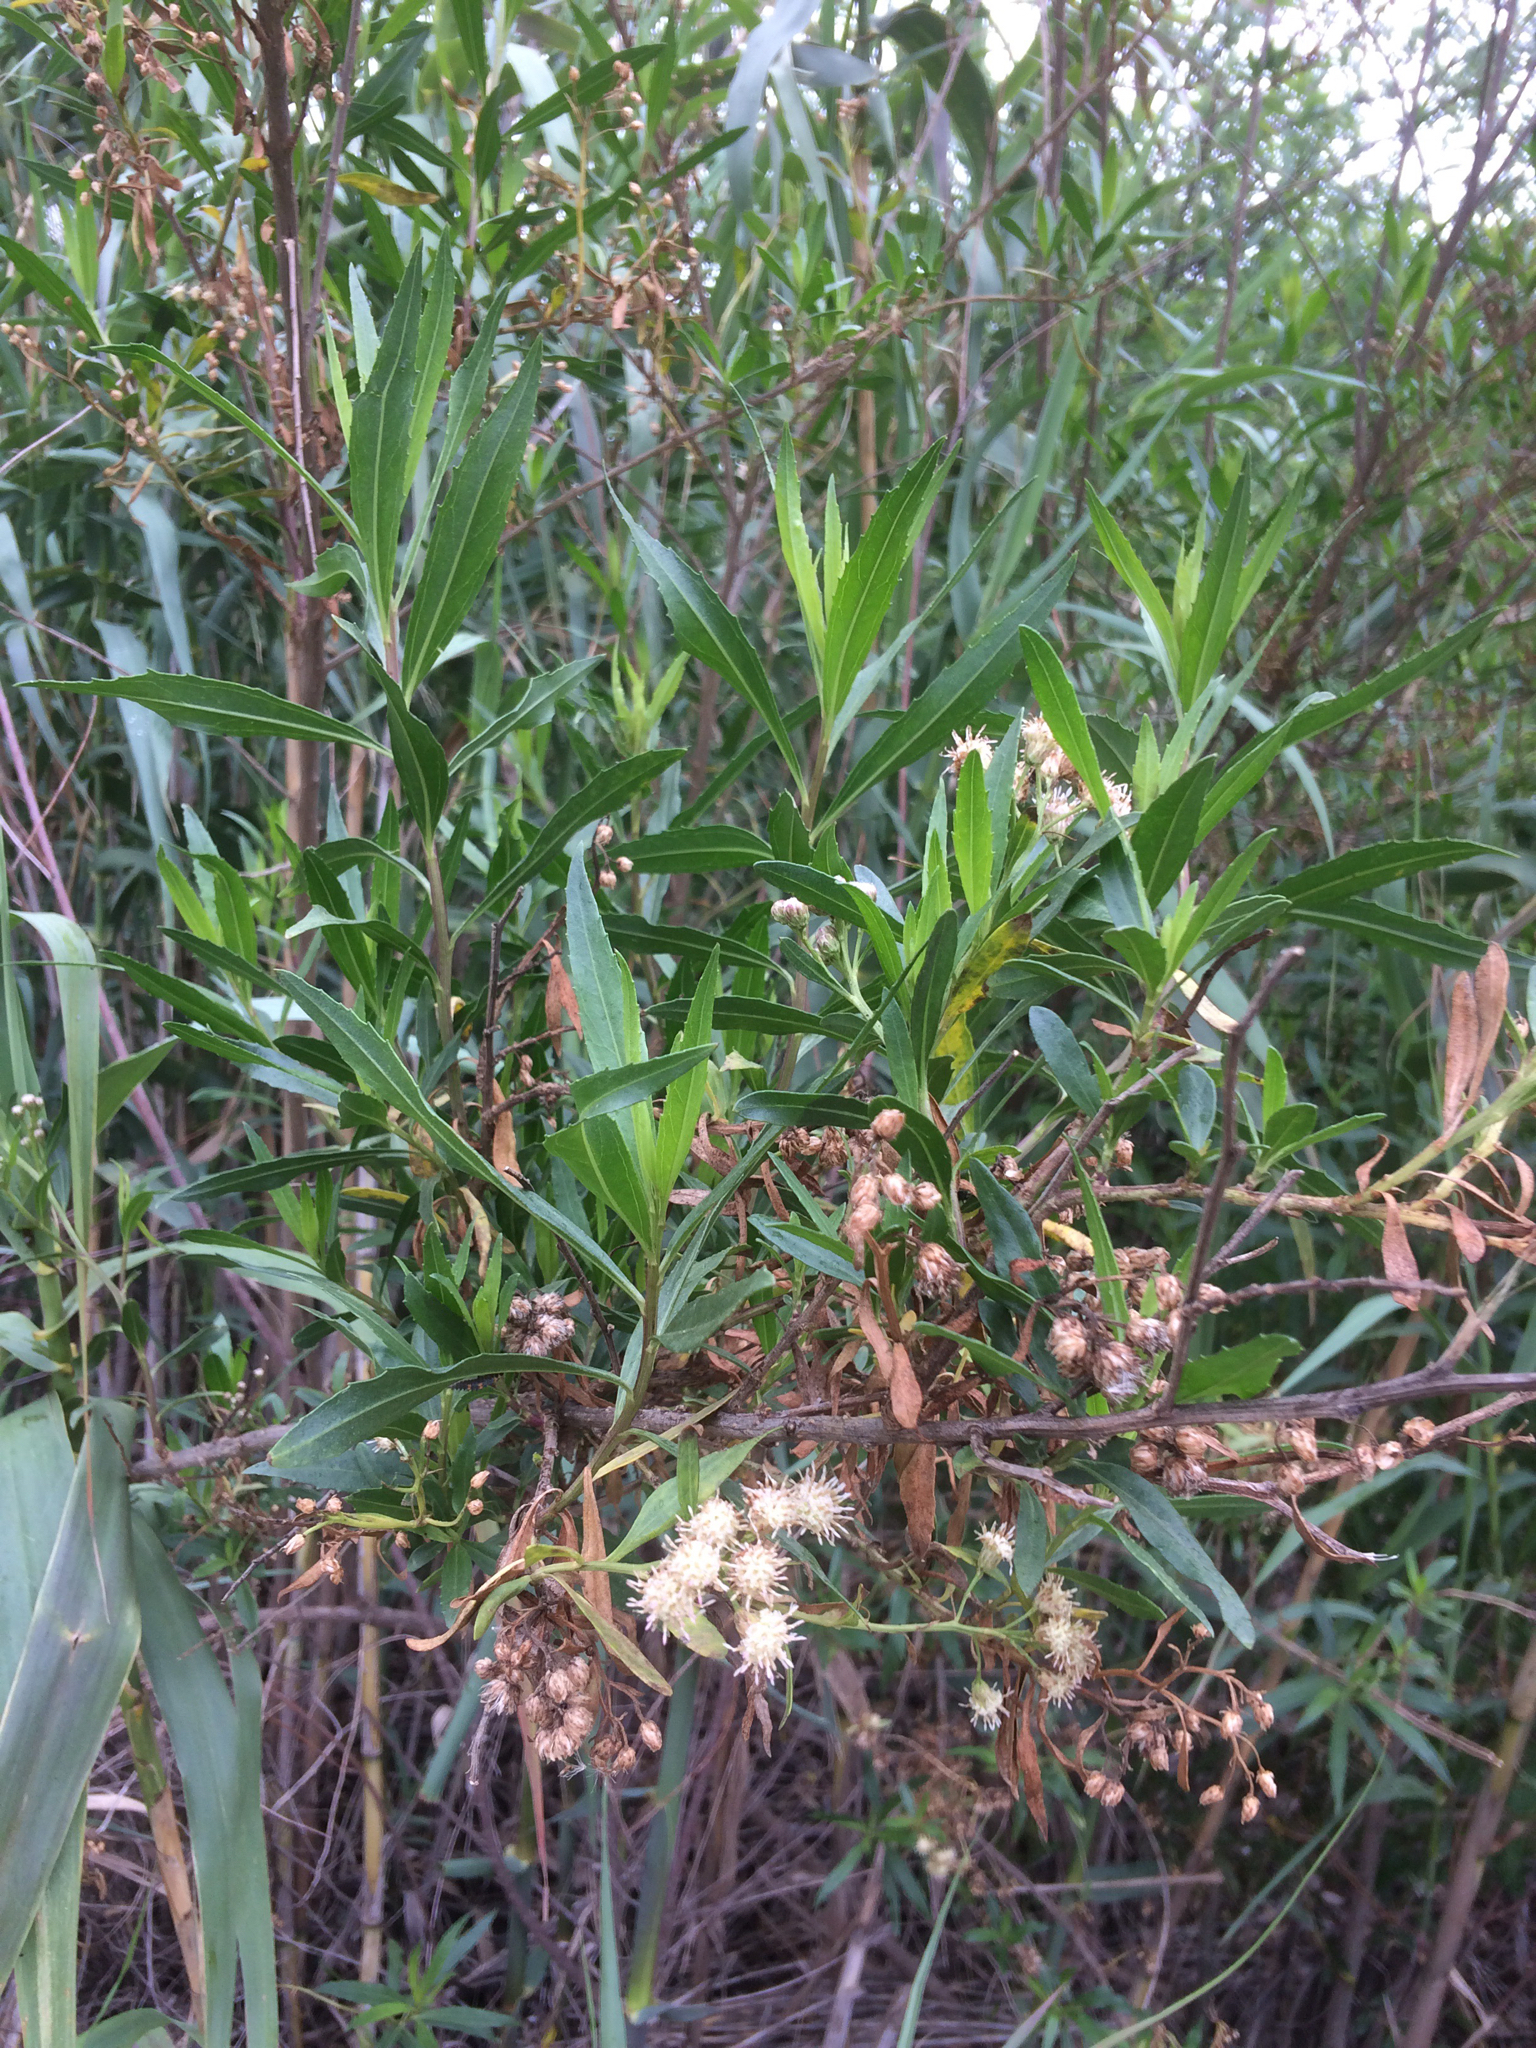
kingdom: Plantae
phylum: Tracheophyta
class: Magnoliopsida
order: Asterales
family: Asteraceae
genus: Baccharis
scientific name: Baccharis salicifolia
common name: Sticky baccharis
